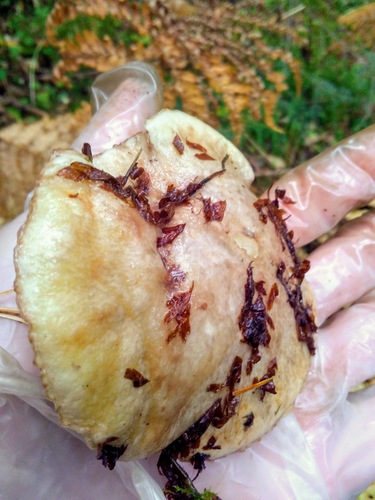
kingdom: Fungi
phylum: Basidiomycota
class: Agaricomycetes
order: Boletales
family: Suillaceae
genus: Suillus
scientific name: Suillus placidus
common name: Slippery white bolete
